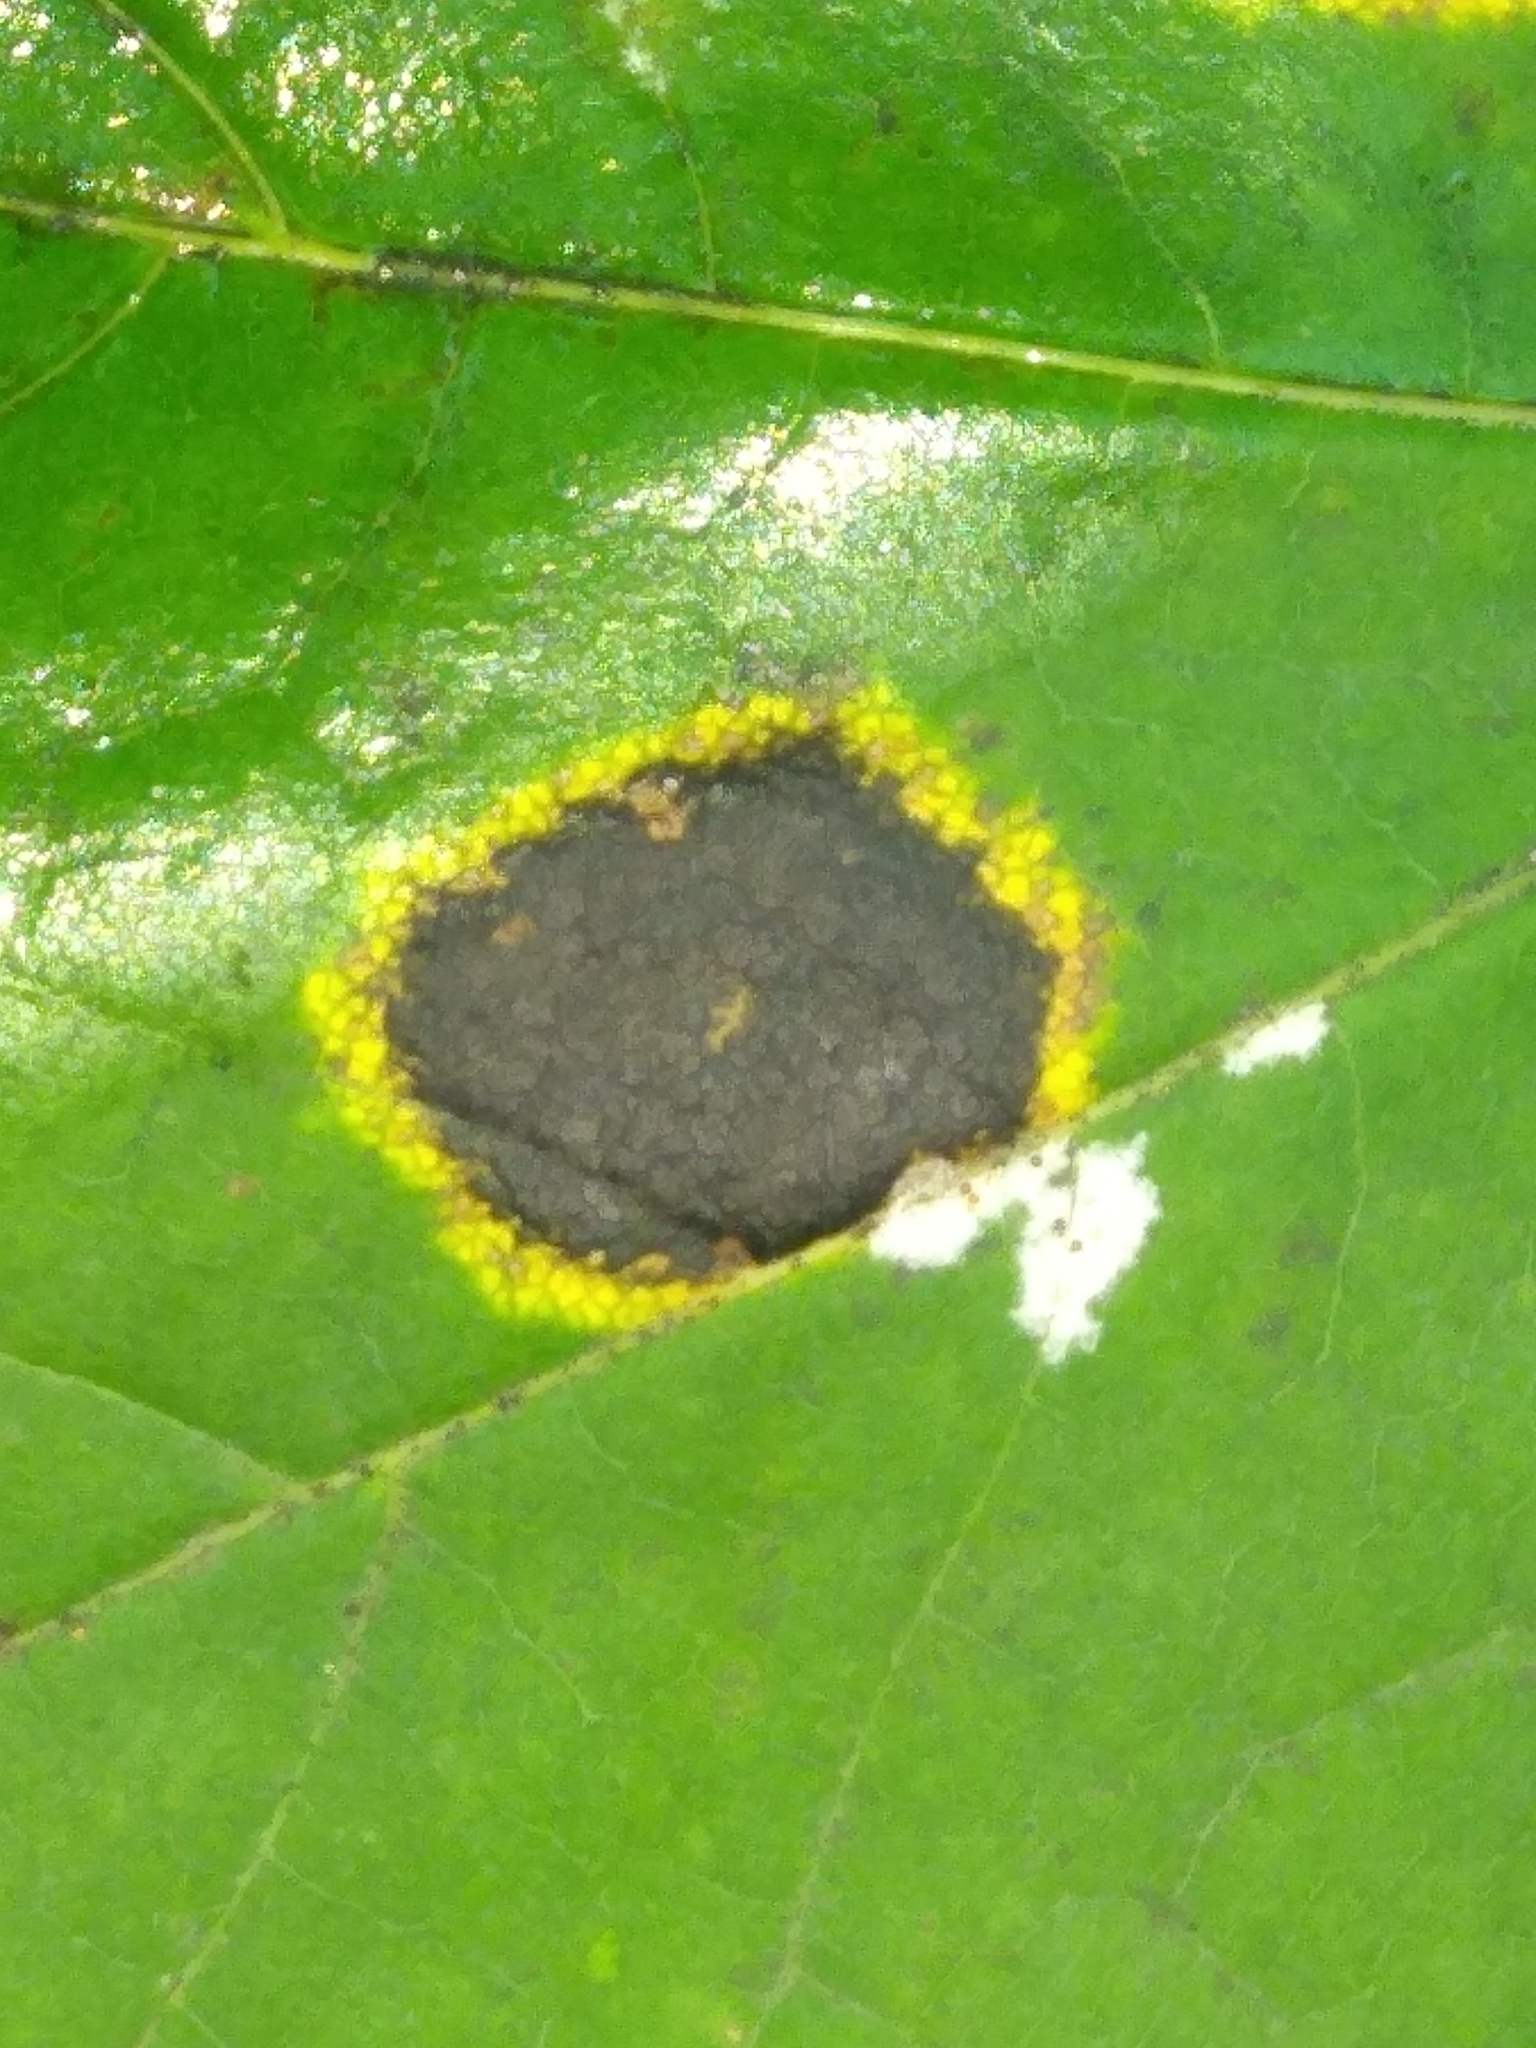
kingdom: Fungi
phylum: Ascomycota
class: Leotiomycetes
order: Rhytismatales
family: Rhytismataceae
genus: Rhytisma
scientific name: Rhytisma acerinum
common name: European tar spot
